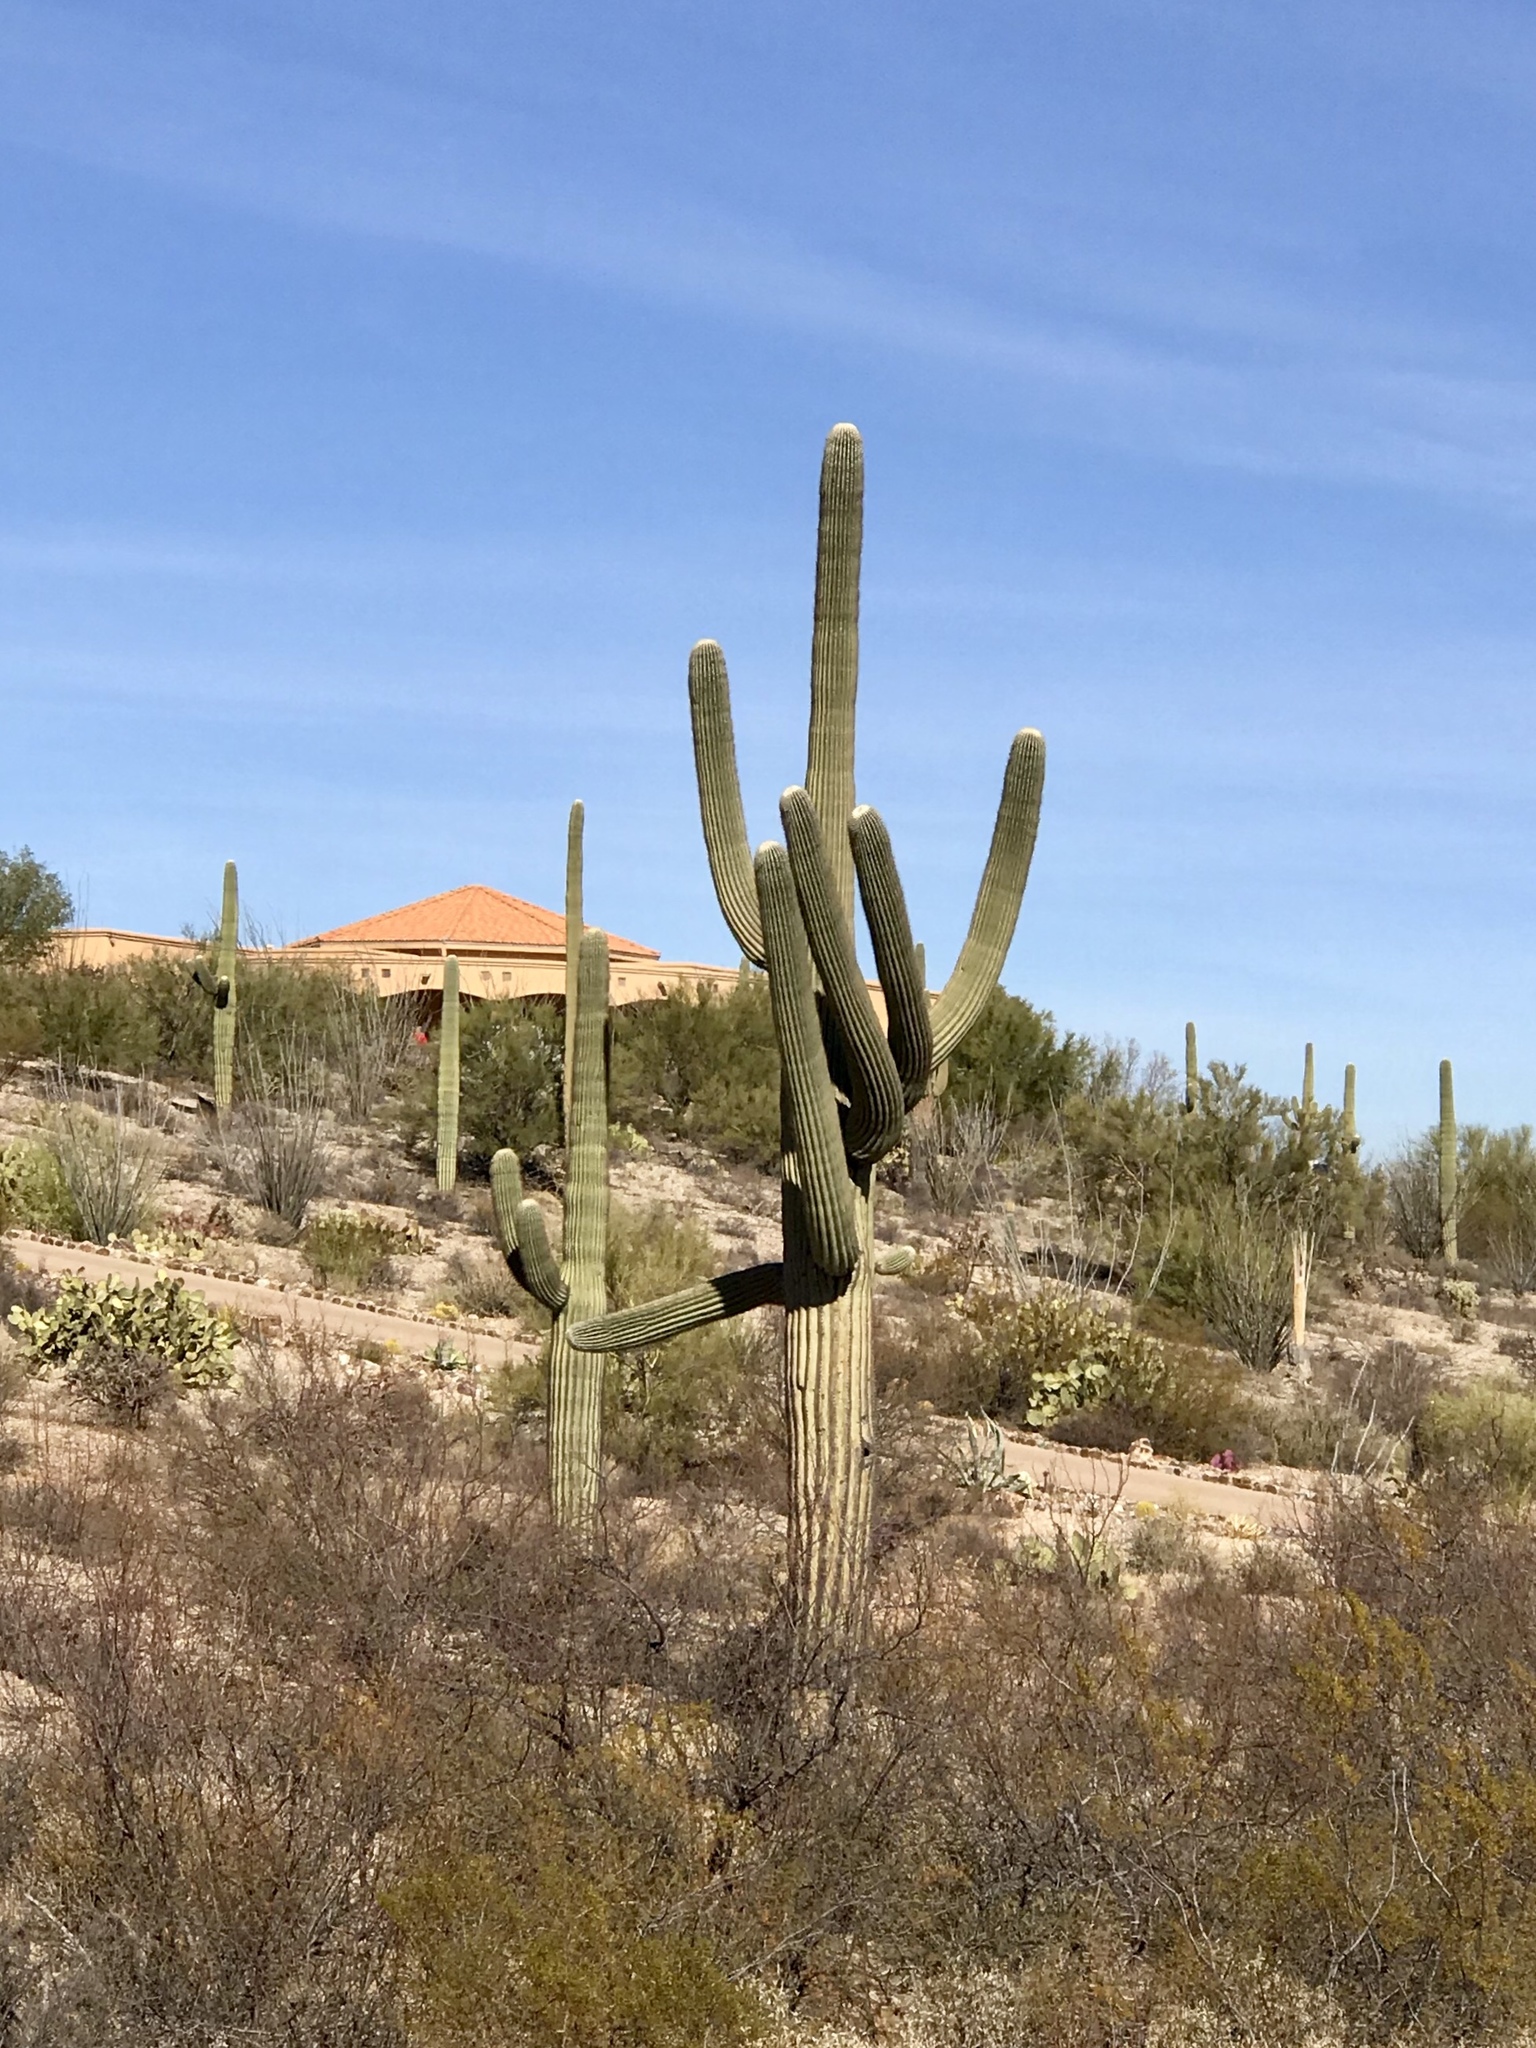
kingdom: Plantae
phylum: Tracheophyta
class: Magnoliopsida
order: Caryophyllales
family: Cactaceae
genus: Carnegiea
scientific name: Carnegiea gigantea
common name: Saguaro
